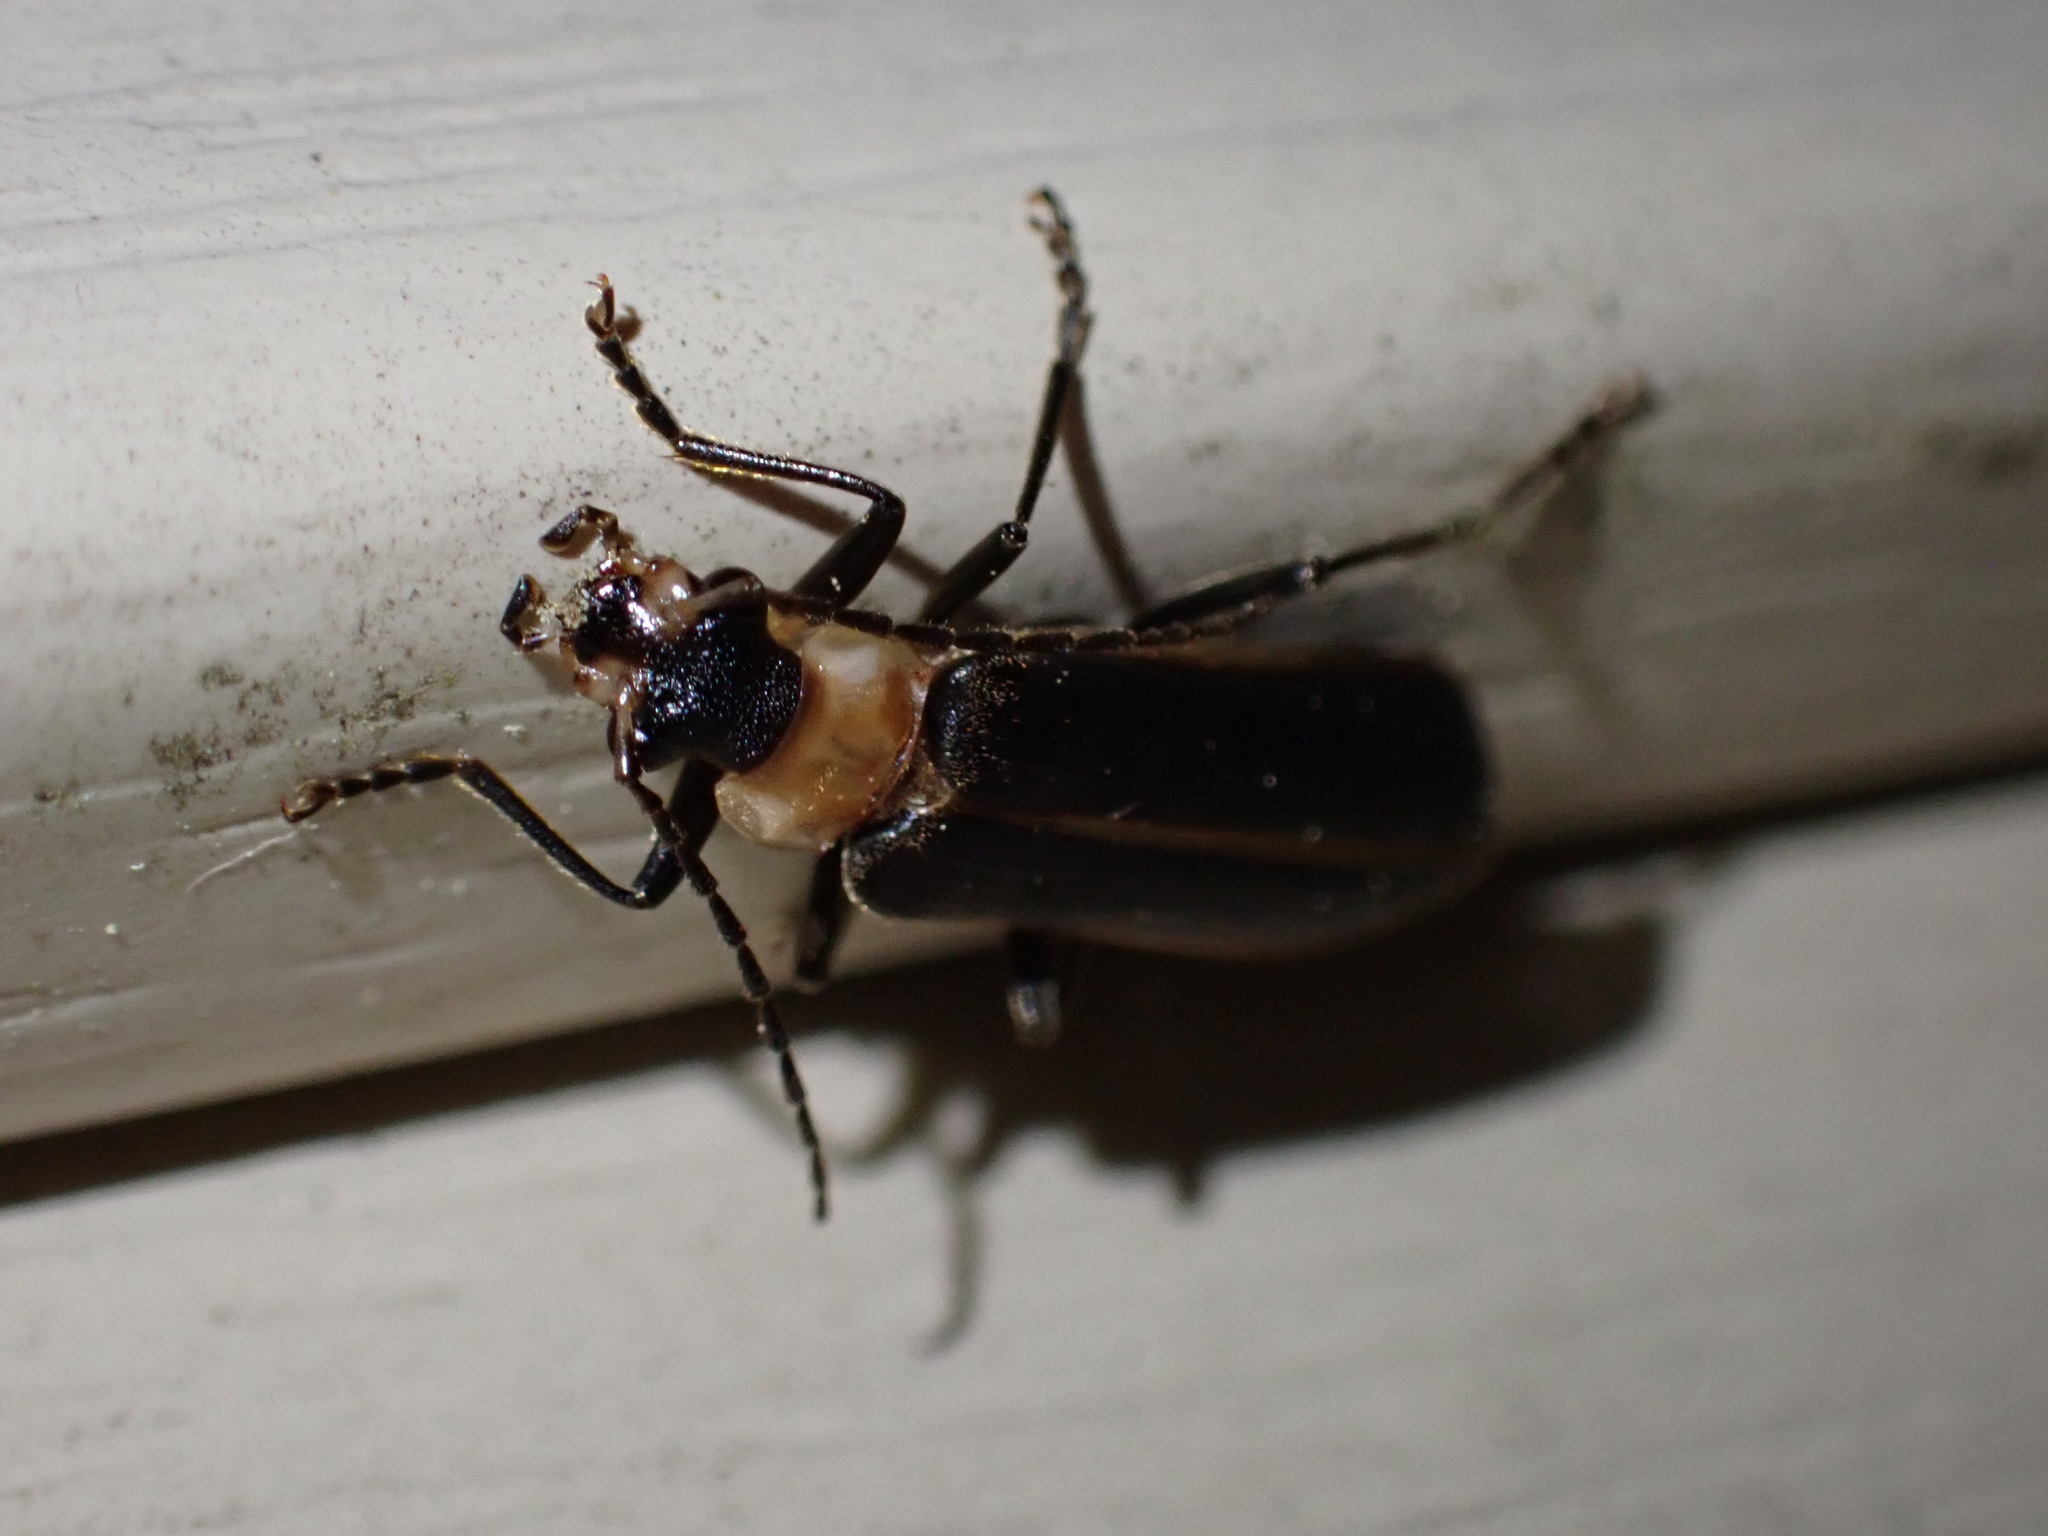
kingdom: Animalia
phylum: Arthropoda
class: Insecta
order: Coleoptera
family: Cantharidae
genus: Podabrus
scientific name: Podabrus flavicollis
